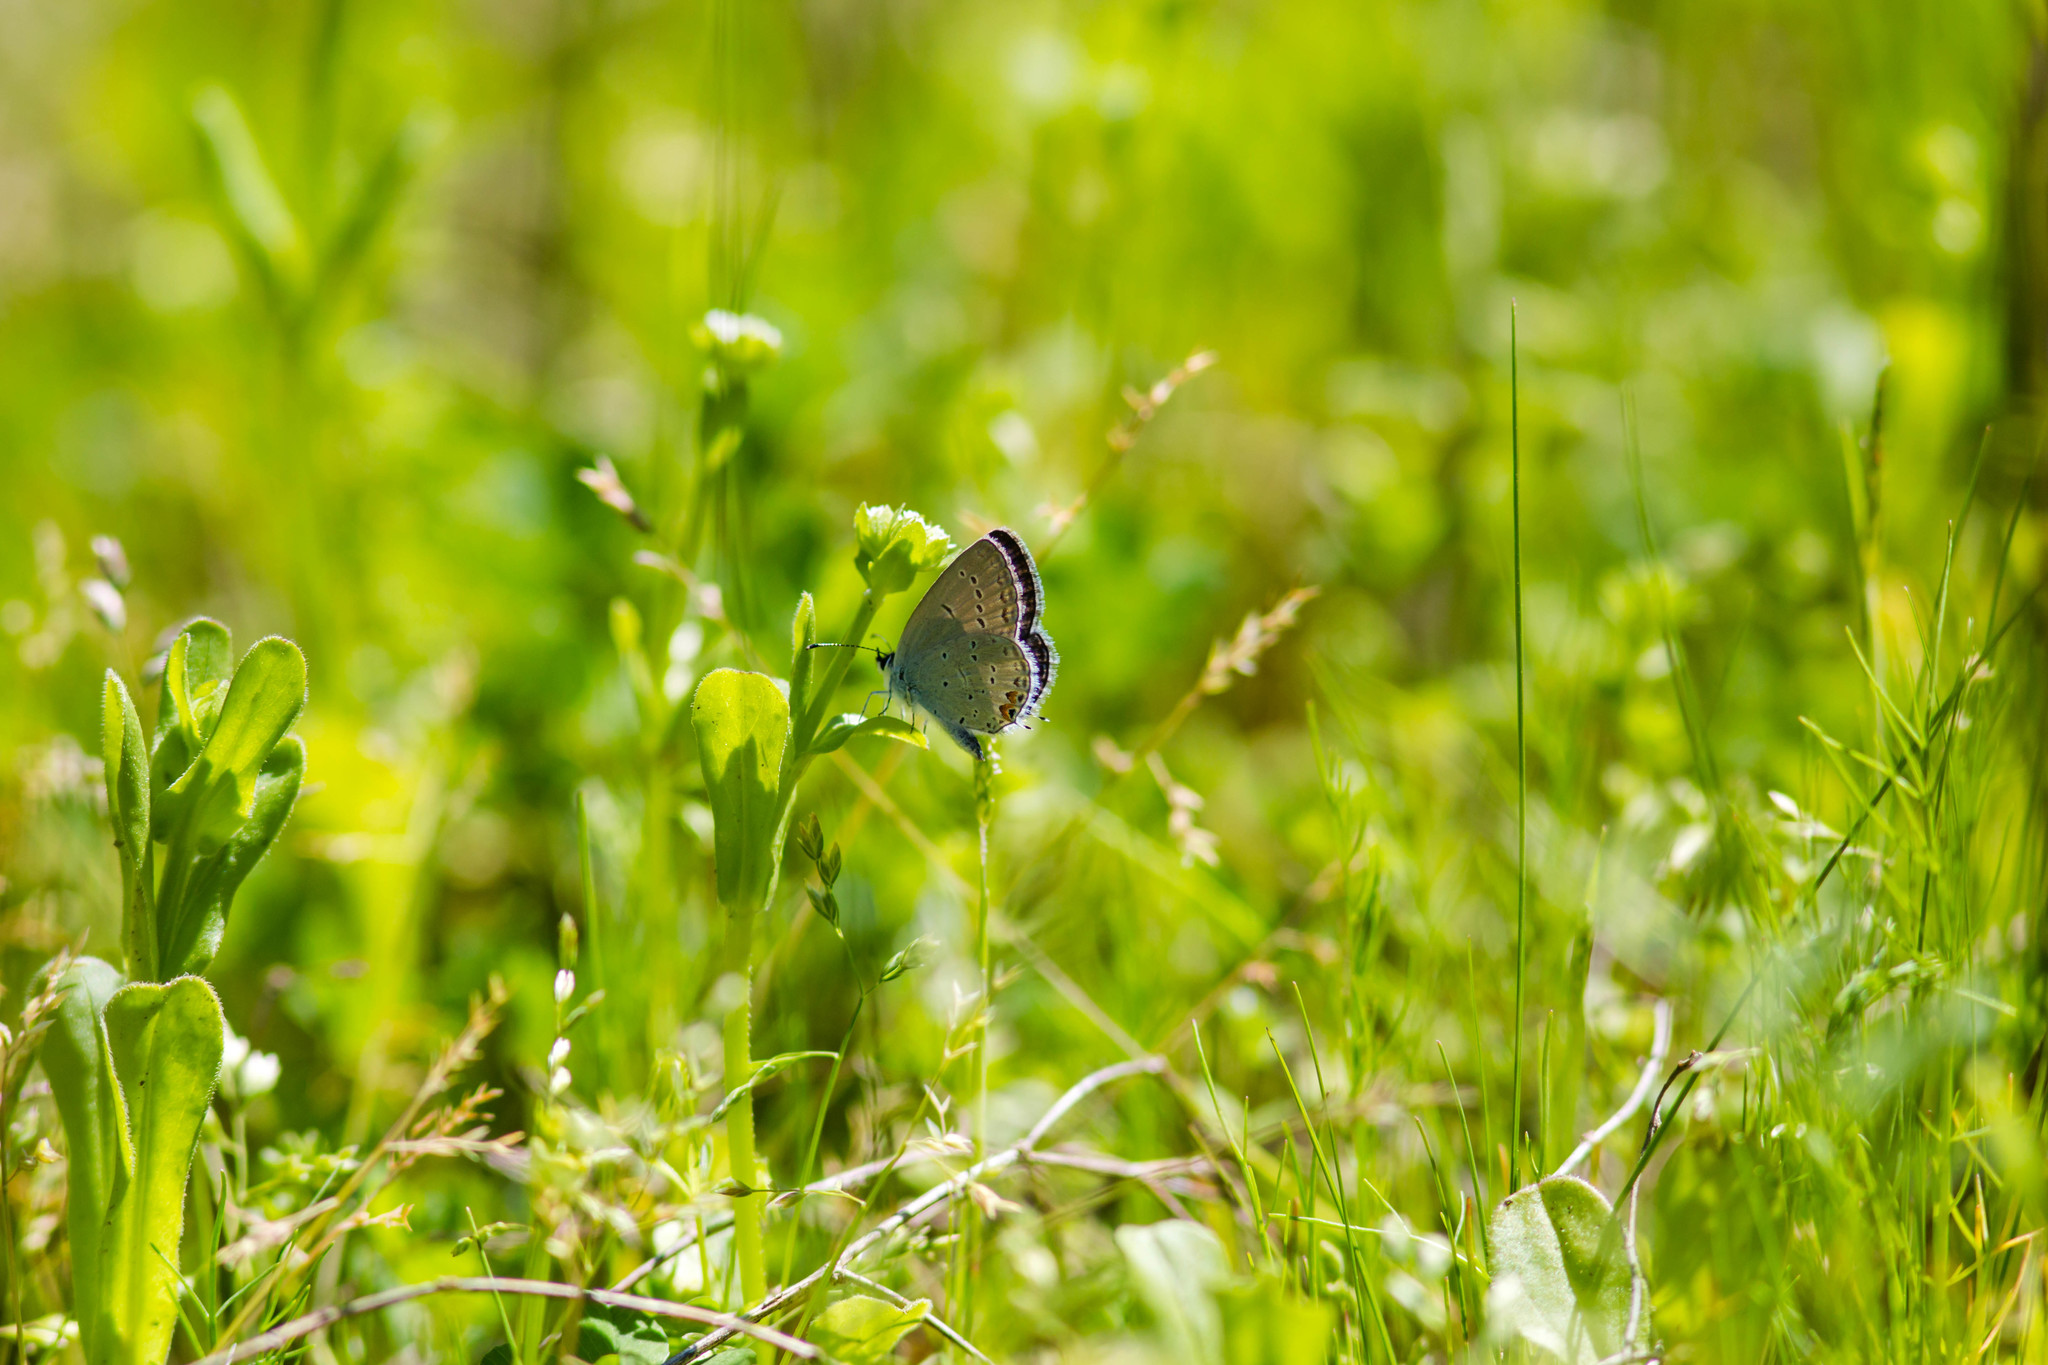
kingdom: Animalia
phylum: Arthropoda
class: Insecta
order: Lepidoptera
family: Lycaenidae
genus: Elkalyce
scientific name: Elkalyce comyntas
